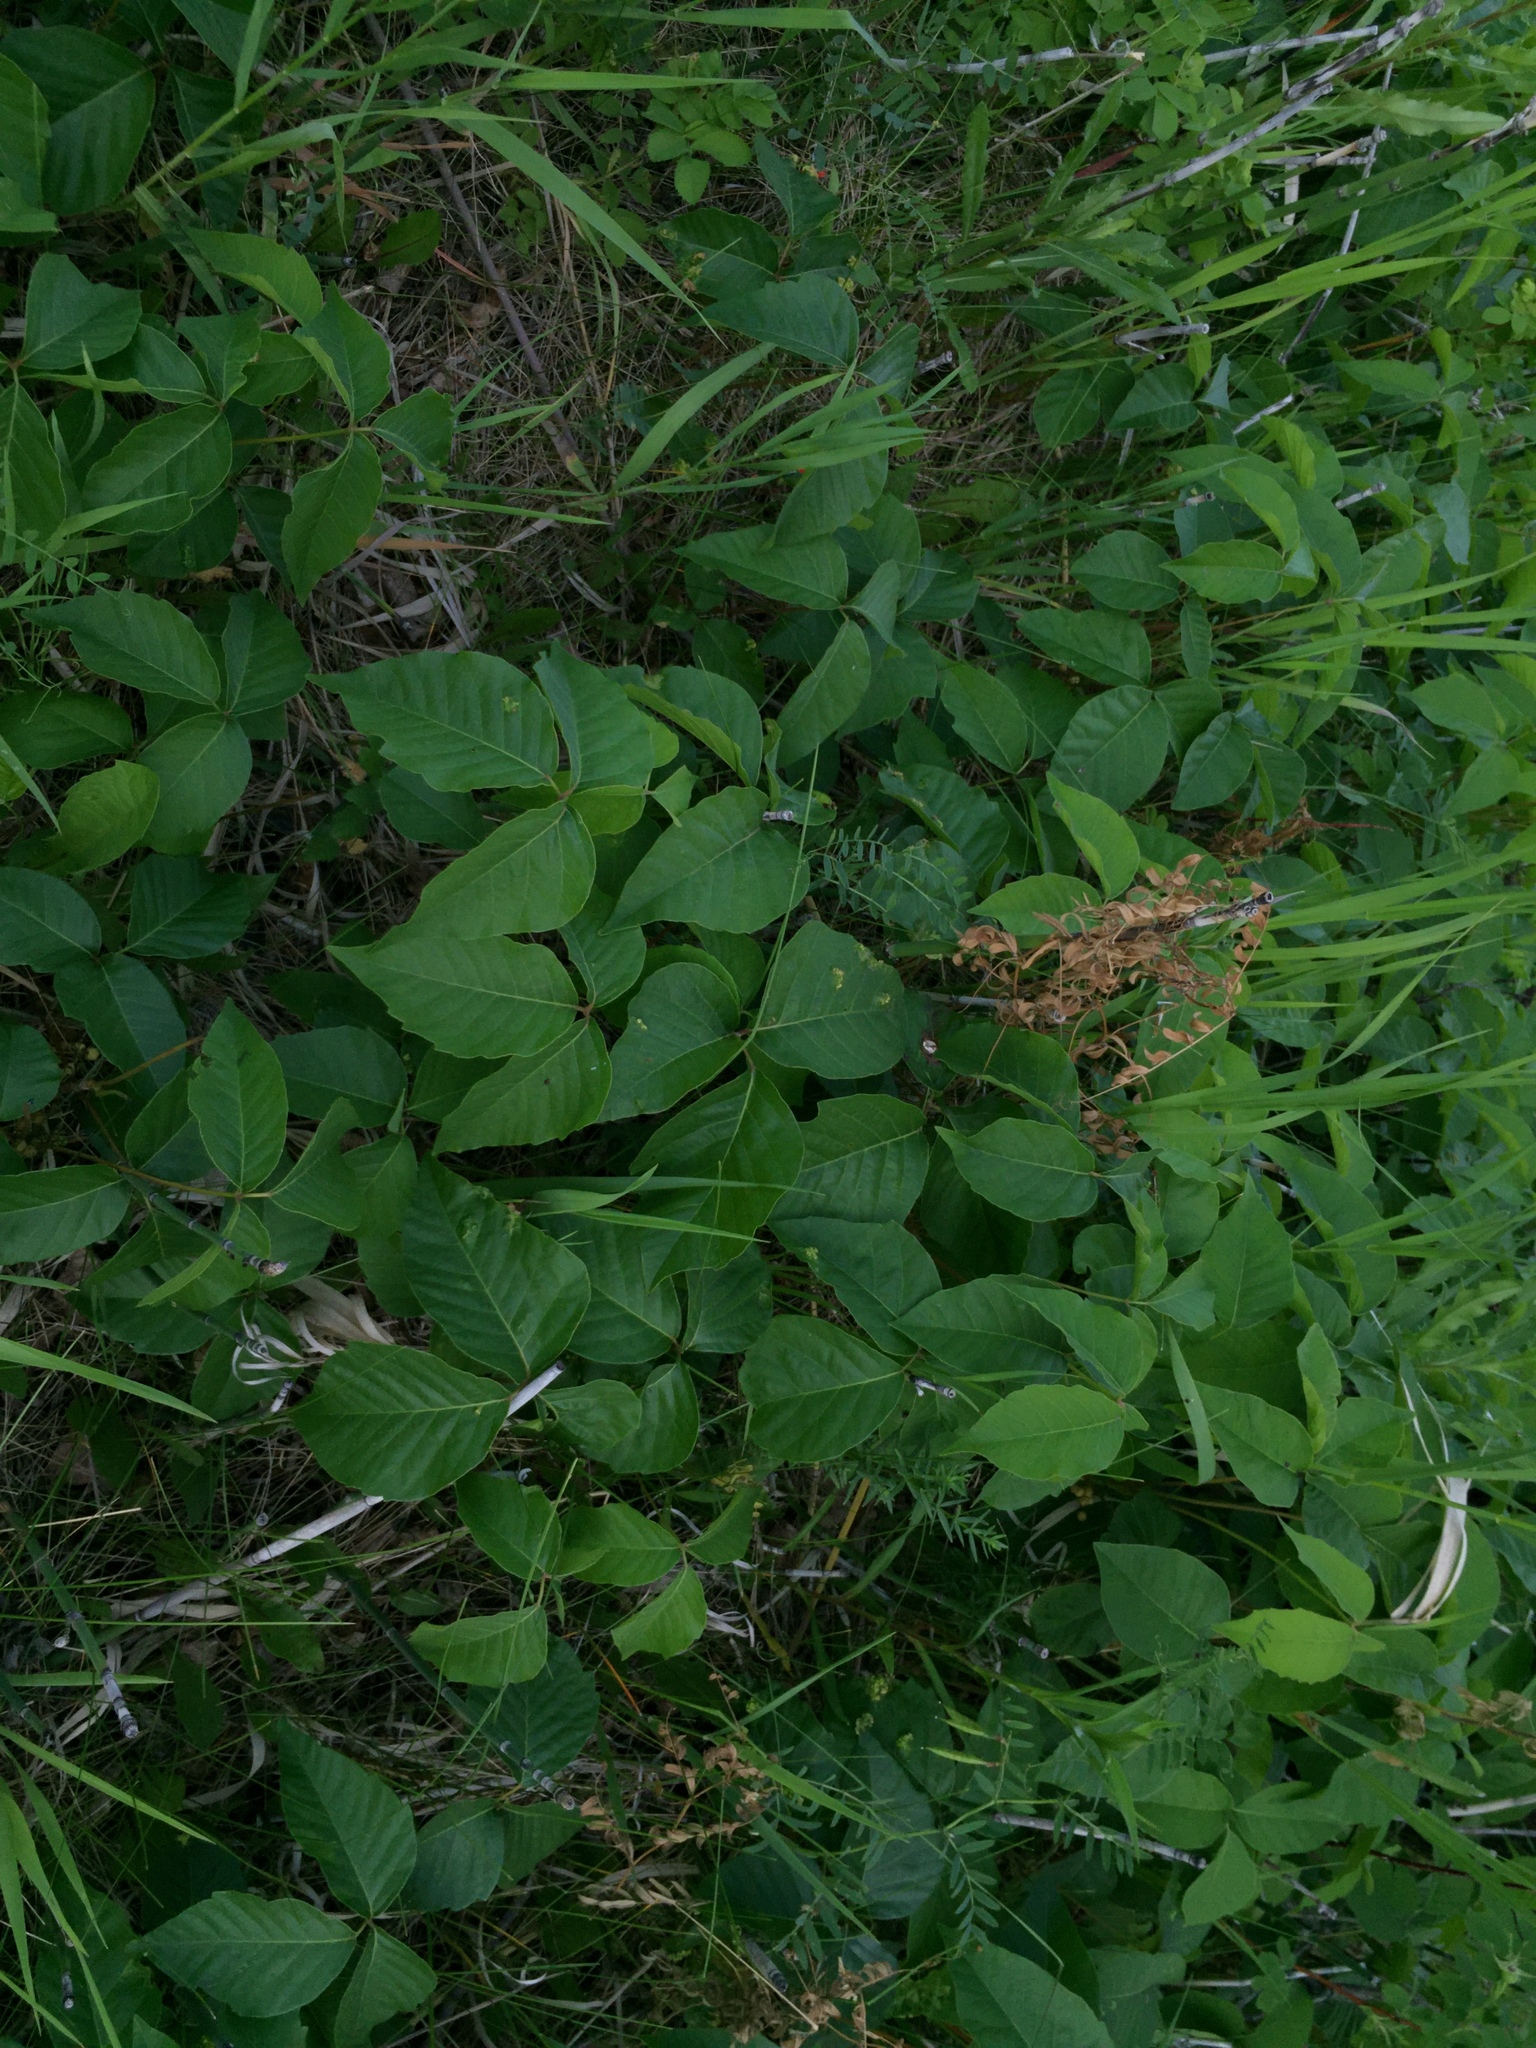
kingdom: Plantae
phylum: Tracheophyta
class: Magnoliopsida
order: Sapindales
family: Anacardiaceae
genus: Toxicodendron
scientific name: Toxicodendron rydbergii
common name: Rydberg's poison-ivy
